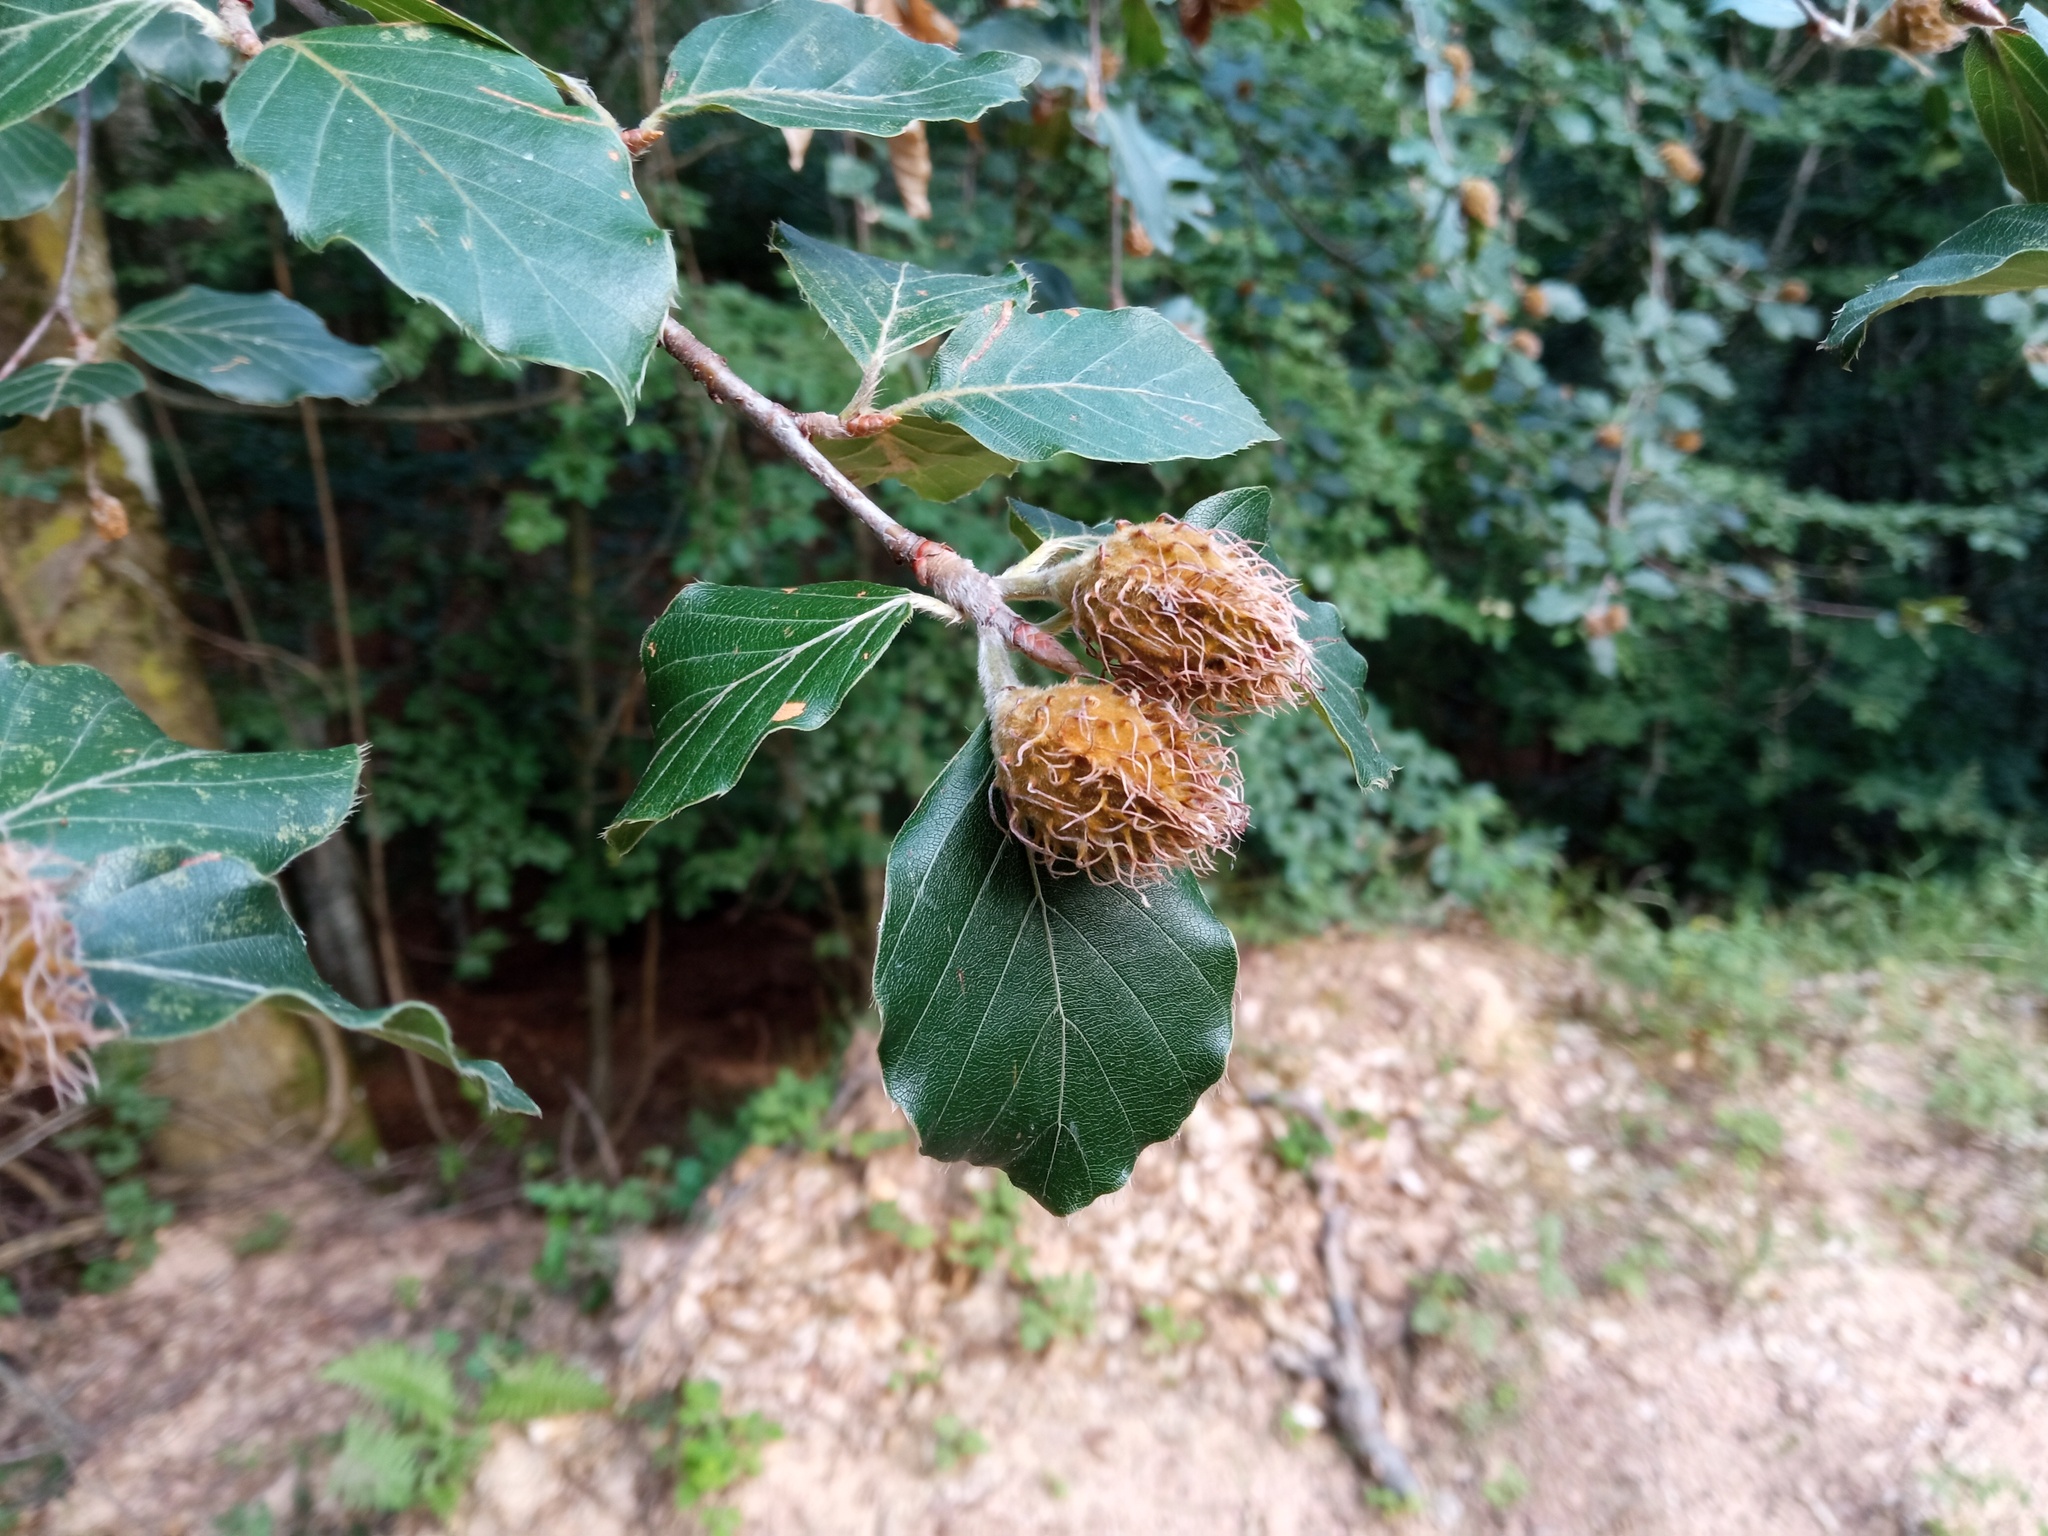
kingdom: Plantae
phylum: Tracheophyta
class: Magnoliopsida
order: Fagales
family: Fagaceae
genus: Fagus
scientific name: Fagus sylvatica
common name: Beech
